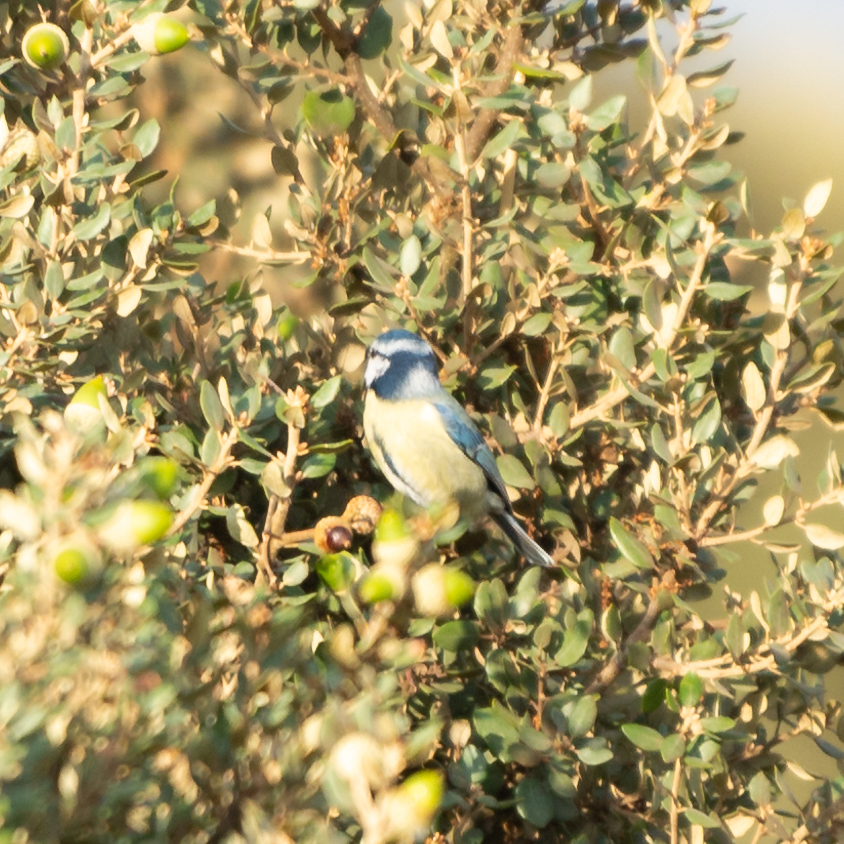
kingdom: Animalia
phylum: Chordata
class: Aves
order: Passeriformes
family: Paridae
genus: Cyanistes
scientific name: Cyanistes caeruleus
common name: Eurasian blue tit
